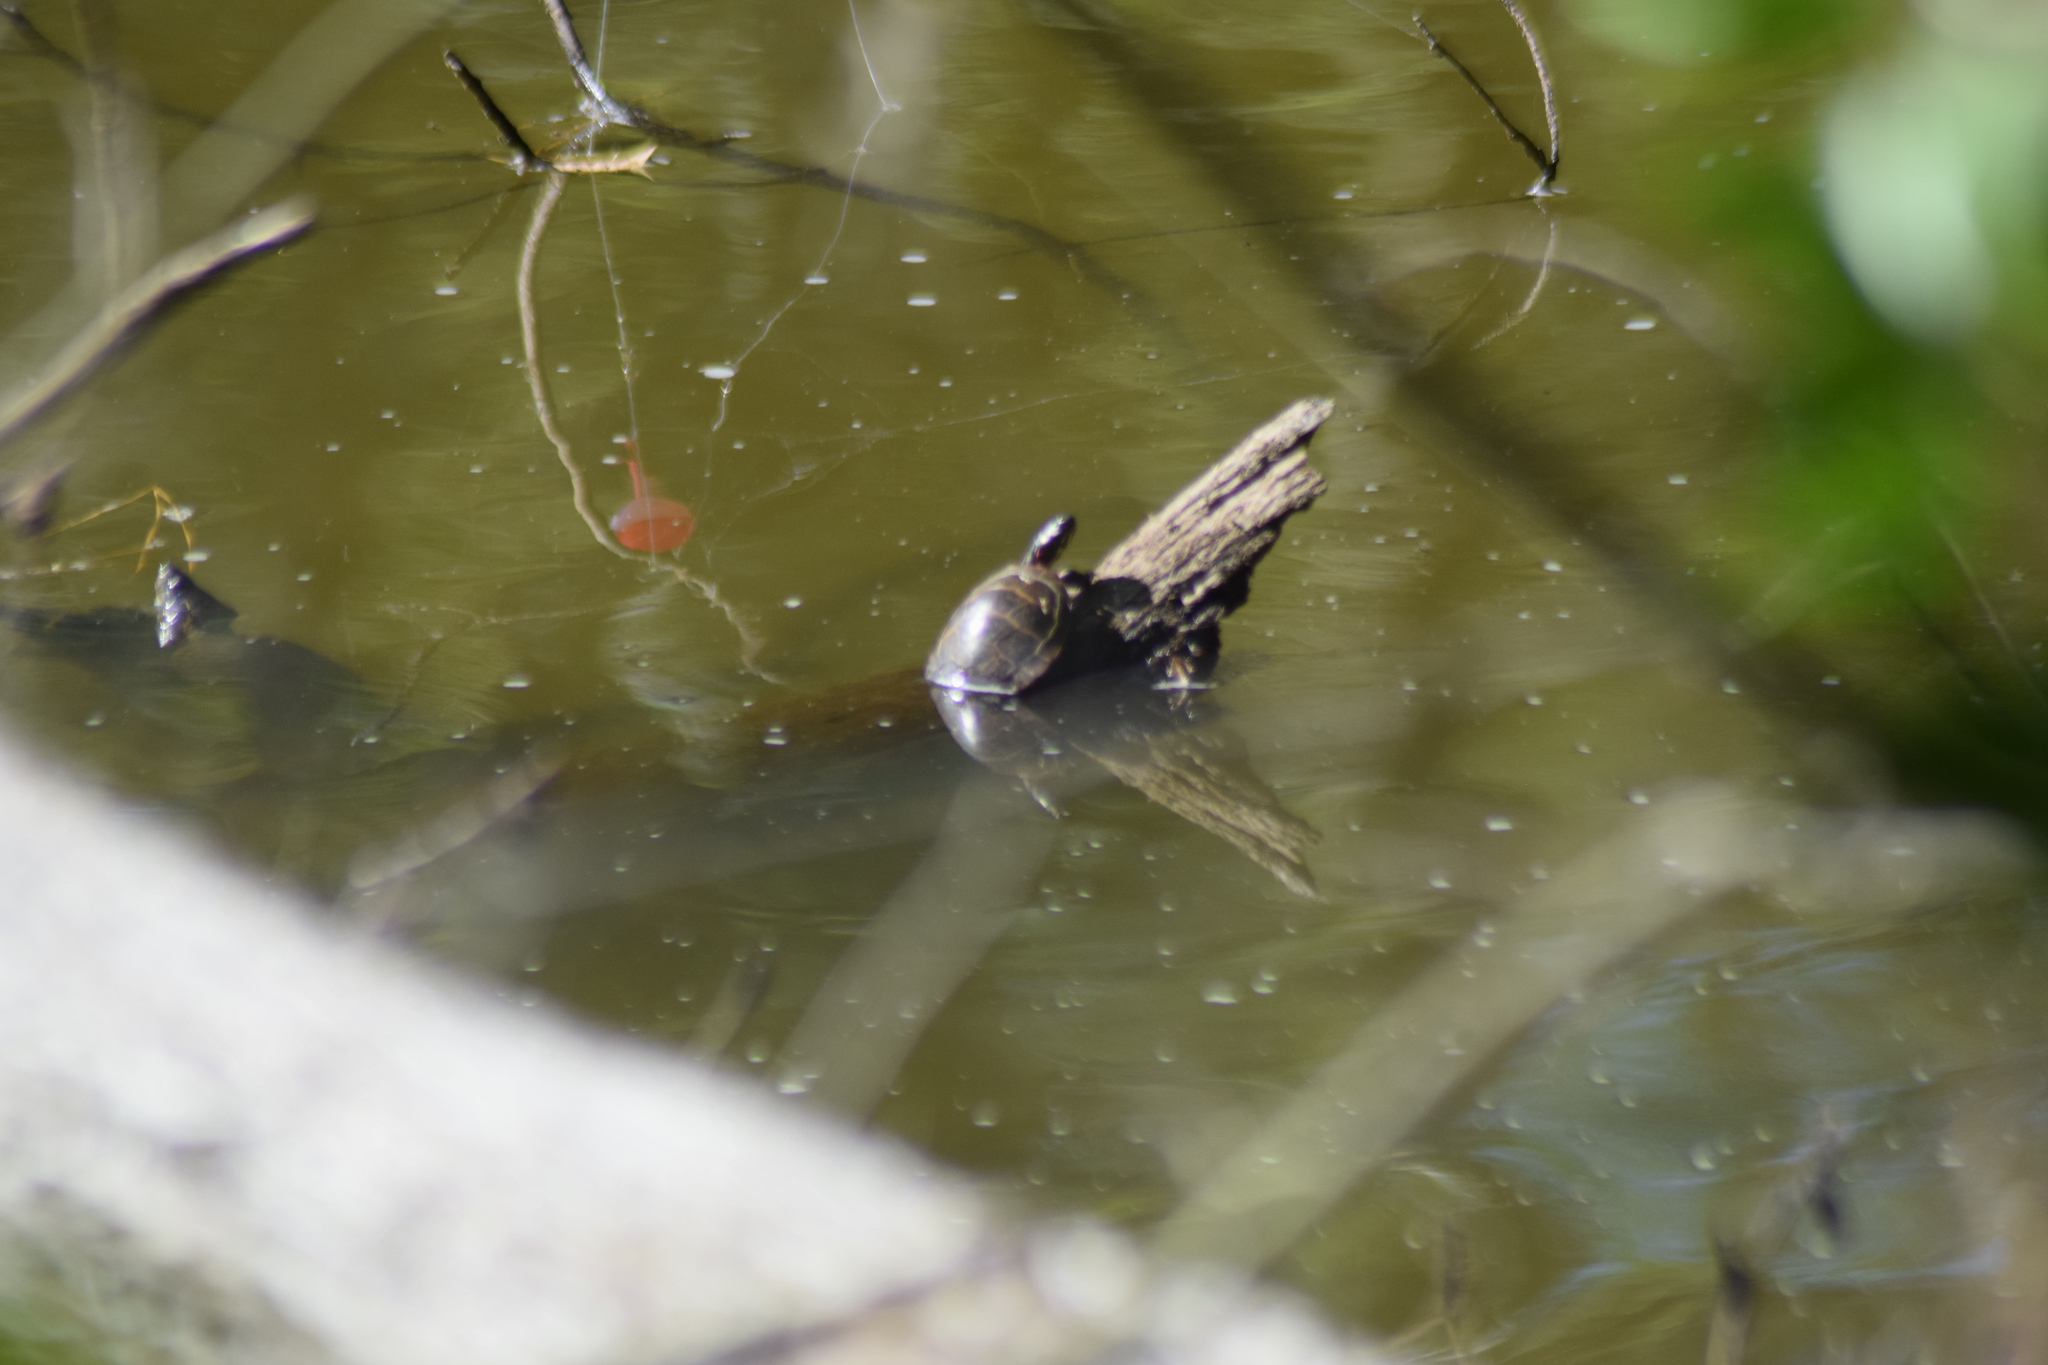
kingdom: Animalia
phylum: Chordata
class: Testudines
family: Emydidae
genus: Chrysemys
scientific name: Chrysemys picta
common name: Painted turtle
